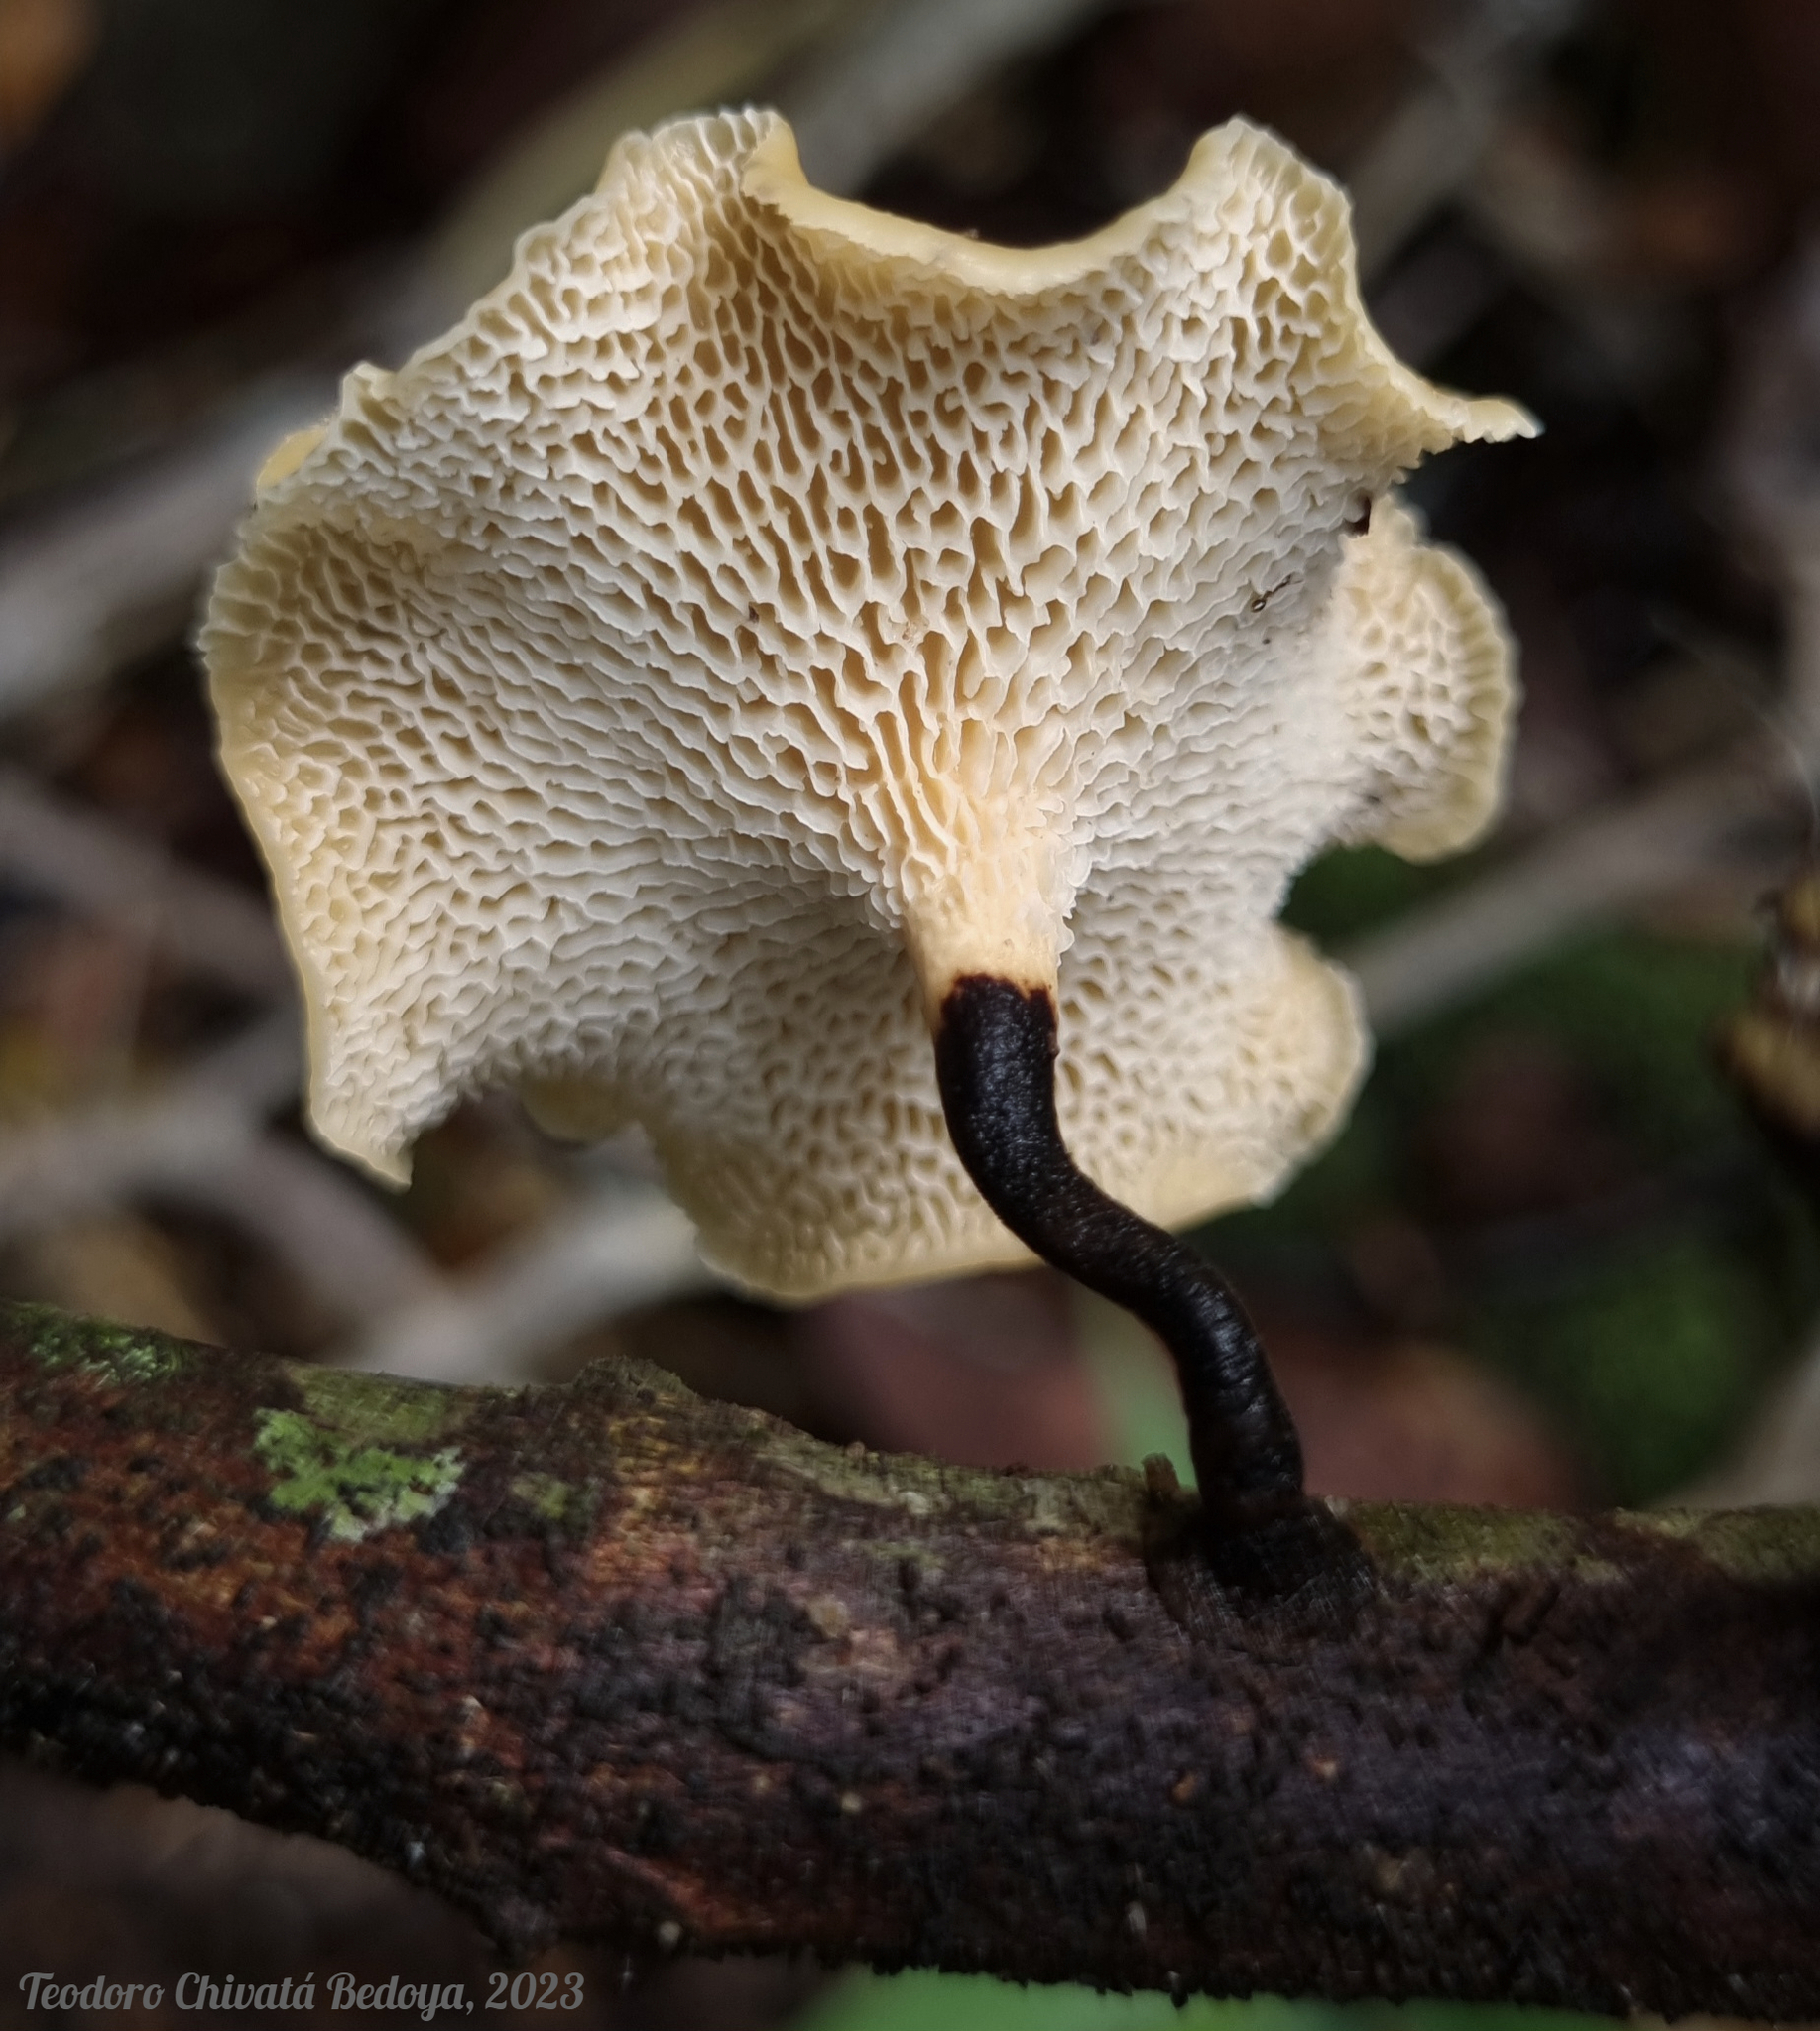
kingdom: Fungi
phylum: Basidiomycota
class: Agaricomycetes
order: Polyporales
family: Polyporaceae
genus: Polyporus
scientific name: Polyporus guianensis
